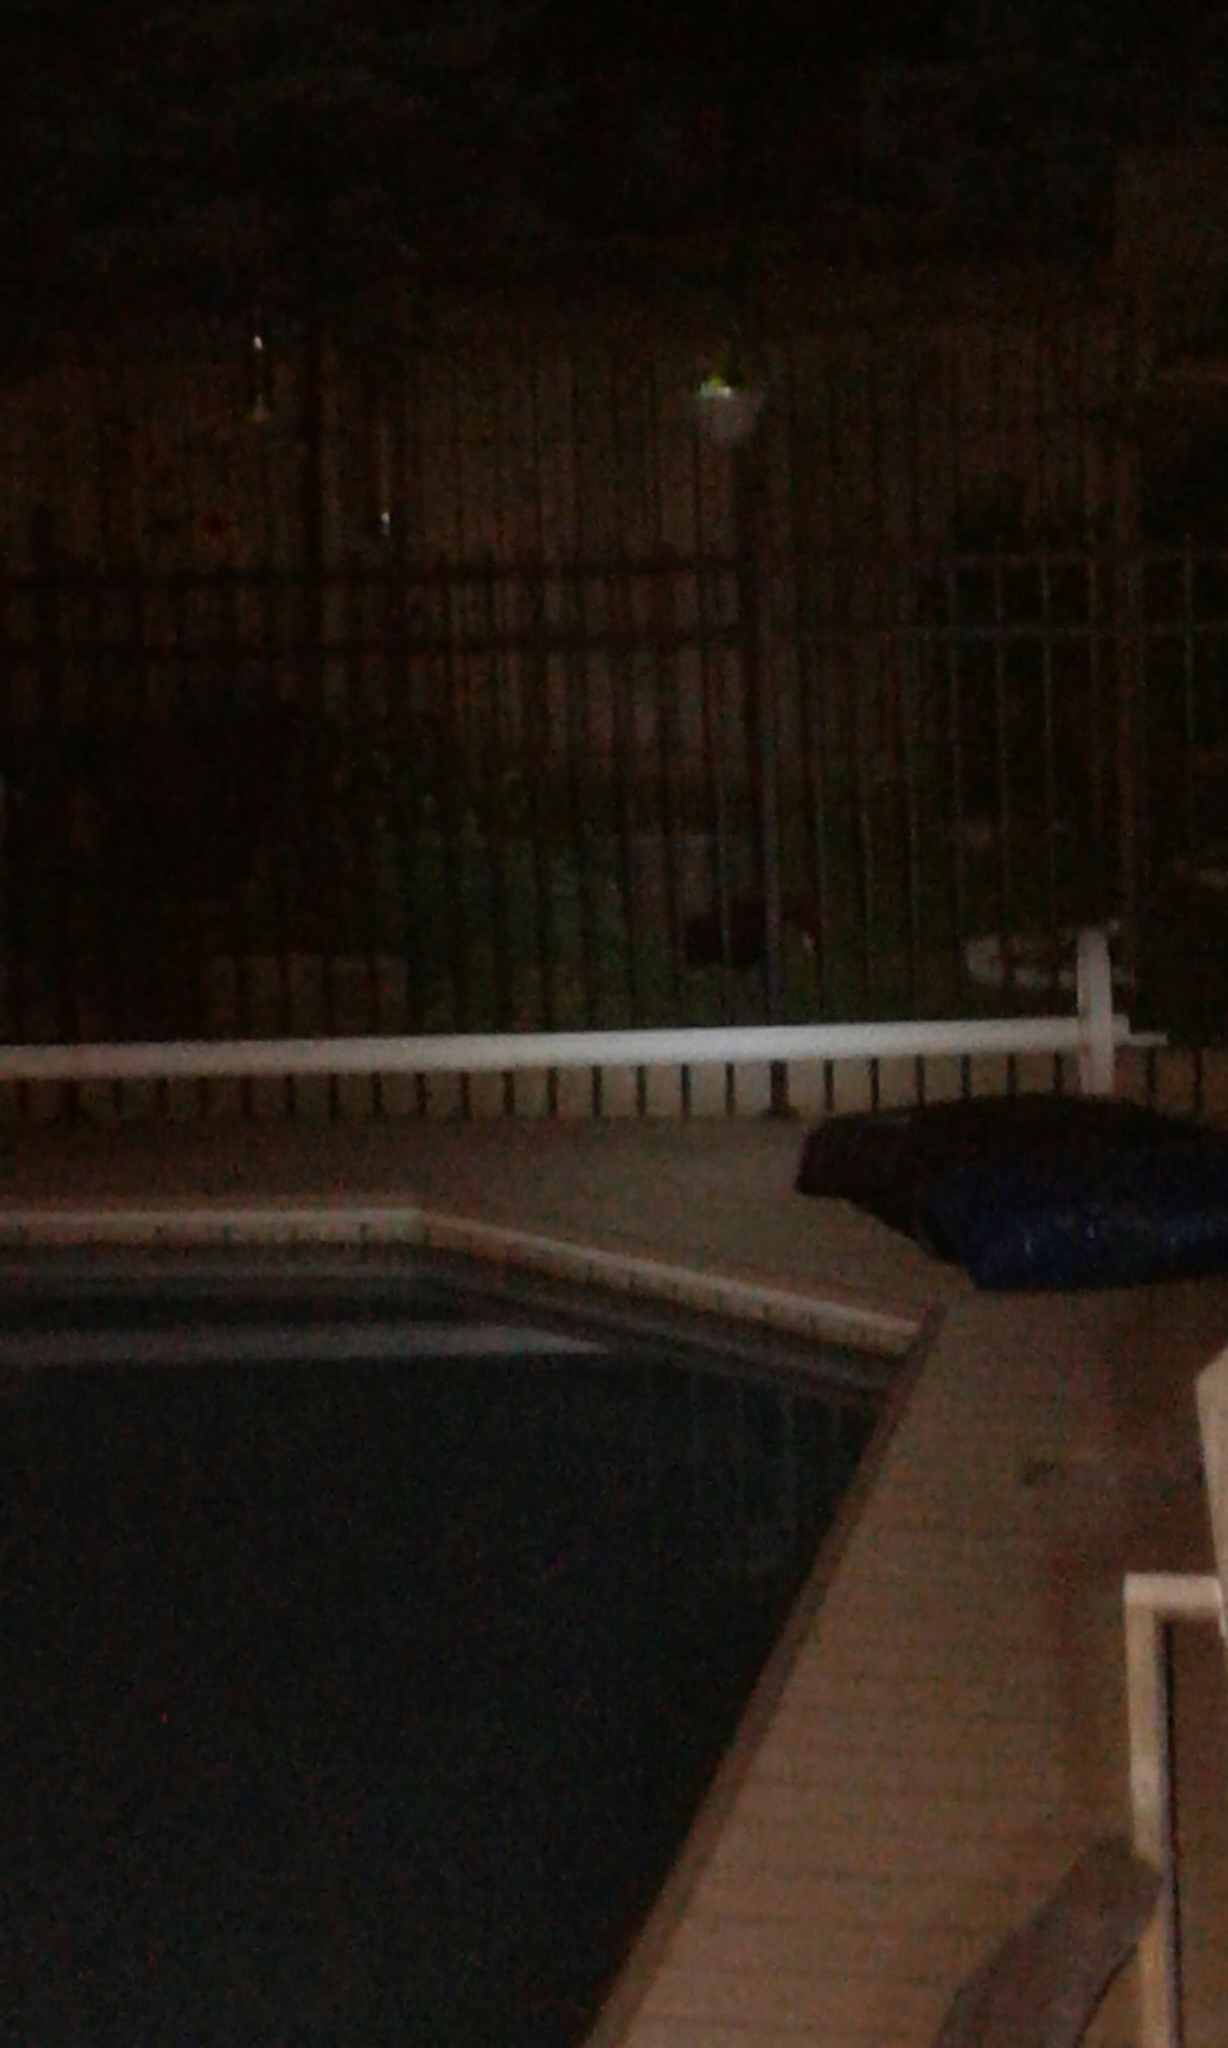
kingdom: Animalia
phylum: Chordata
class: Mammalia
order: Carnivora
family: Mephitidae
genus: Mephitis
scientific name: Mephitis mephitis
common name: Striped skunk
